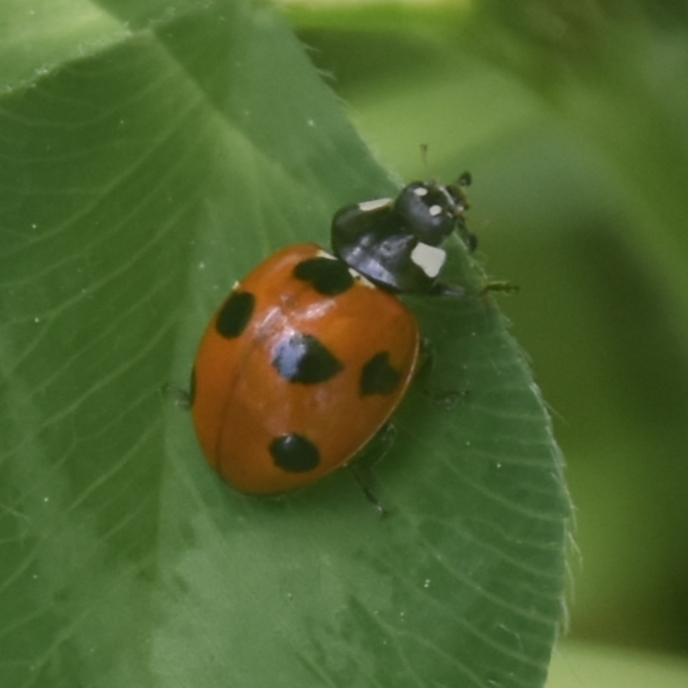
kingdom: Animalia
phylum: Arthropoda
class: Insecta
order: Coleoptera
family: Coccinellidae
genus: Coccinella
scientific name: Coccinella septempunctata
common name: Sevenspotted lady beetle
